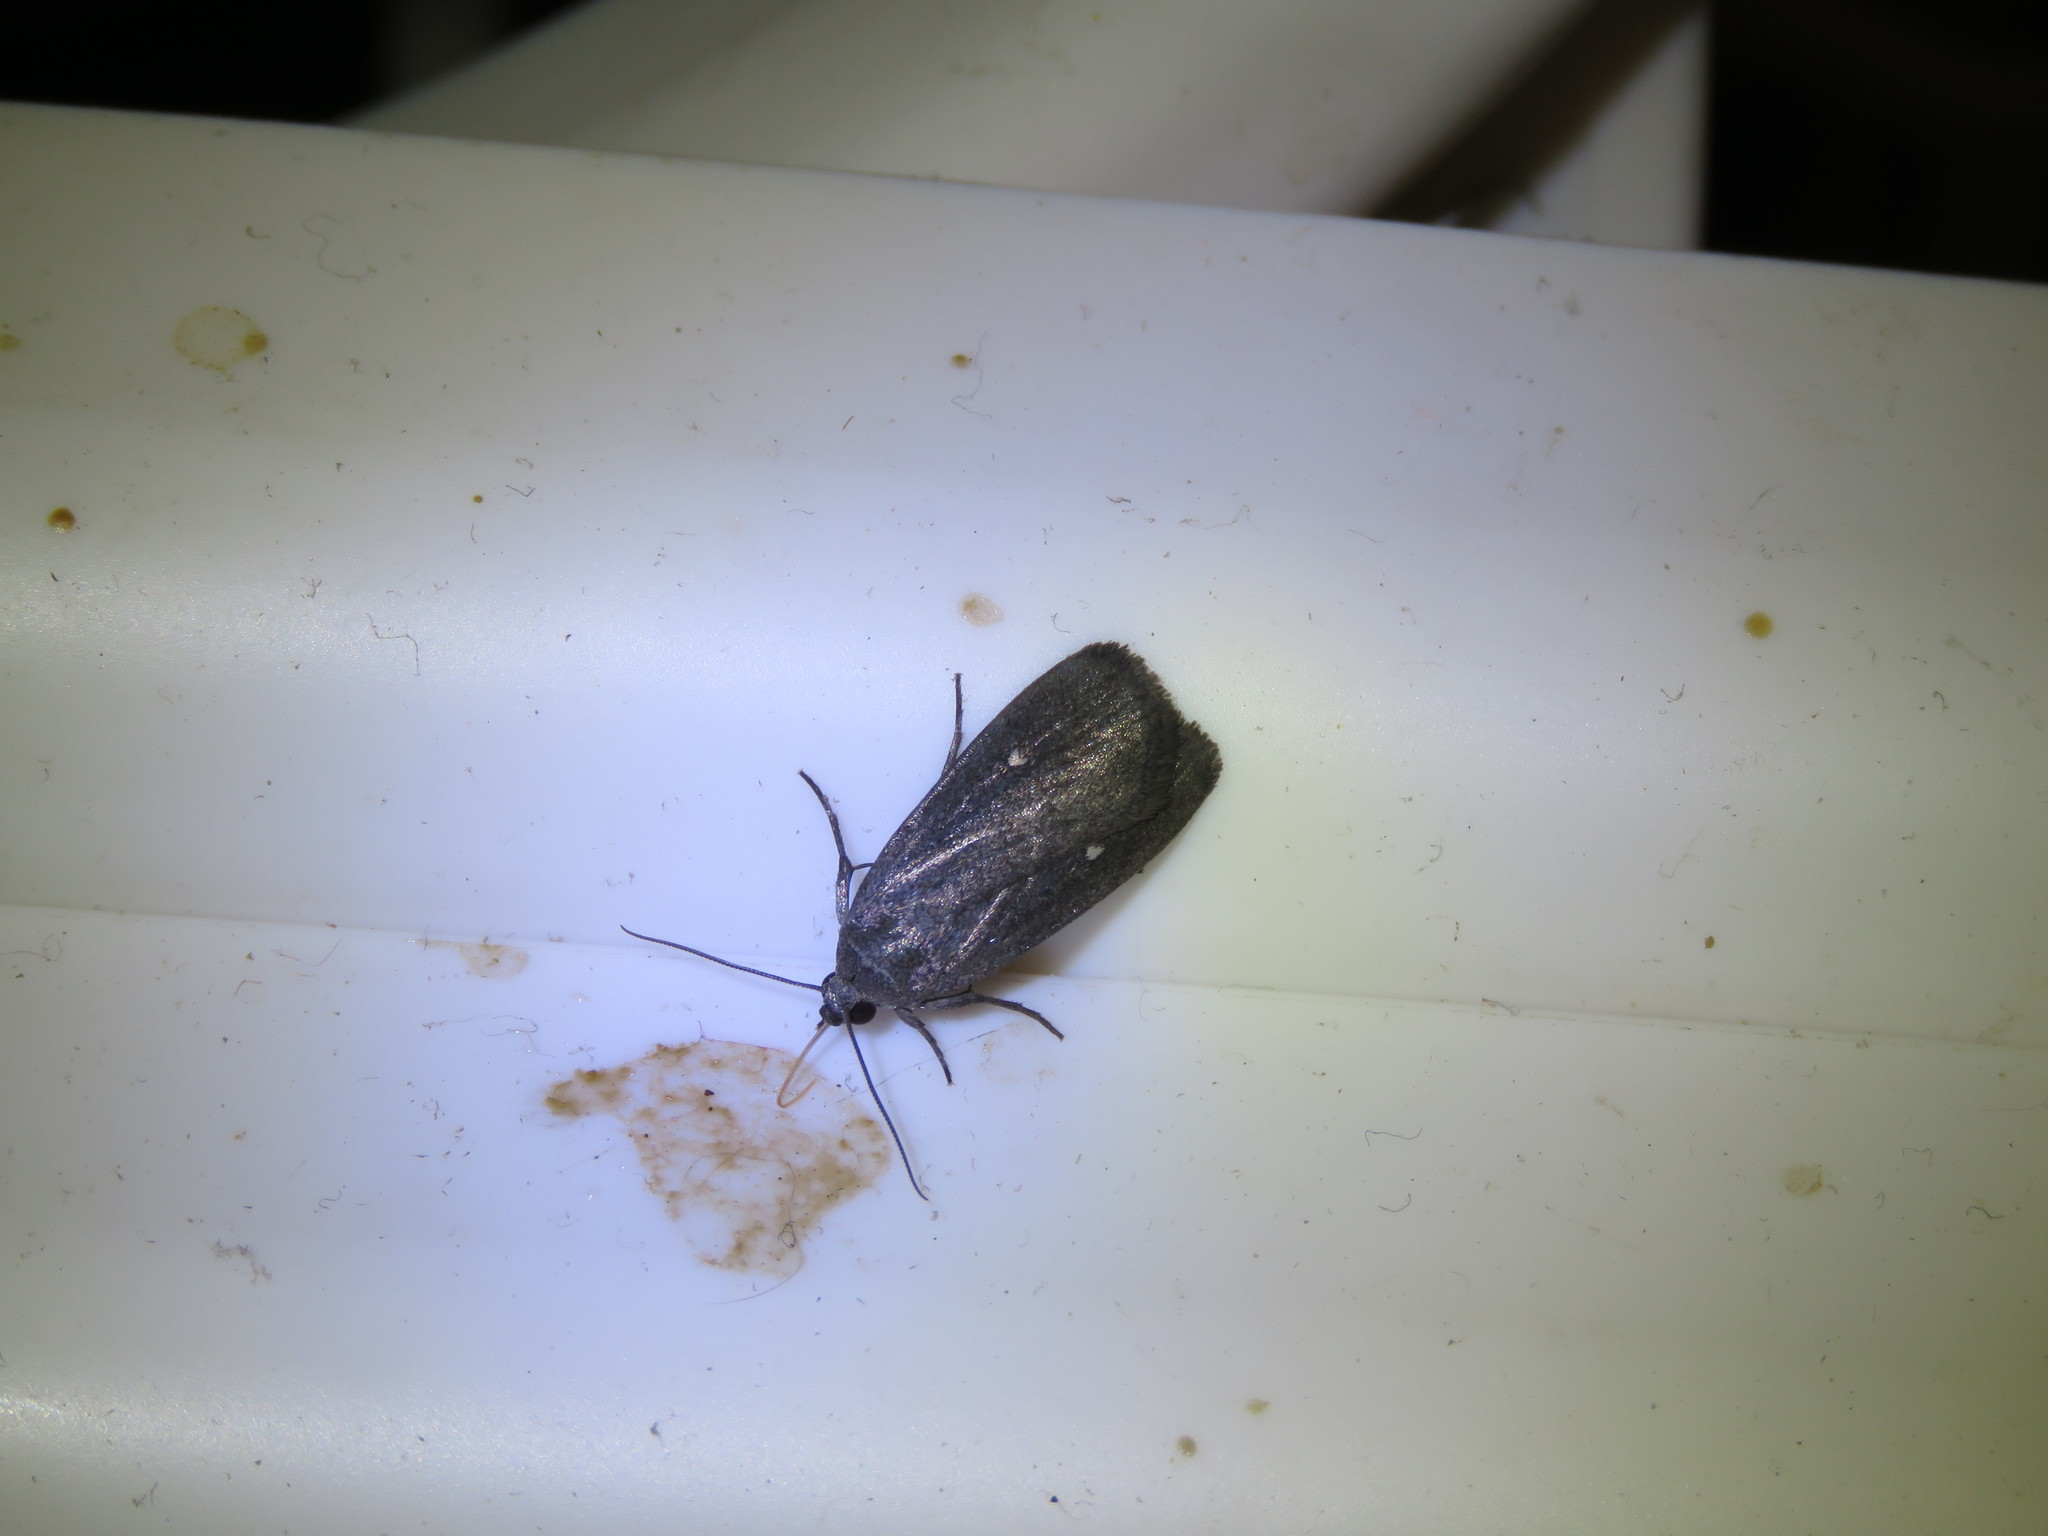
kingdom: Animalia
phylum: Arthropoda
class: Insecta
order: Lepidoptera
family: Noctuidae
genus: Proxenus
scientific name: Proxenus miranda
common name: Miranda moth
